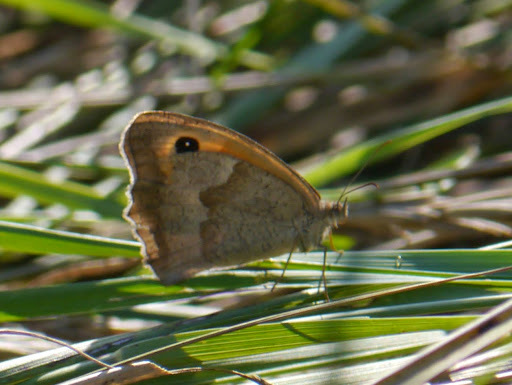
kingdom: Animalia
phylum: Arthropoda
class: Insecta
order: Lepidoptera
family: Nymphalidae
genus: Maniola
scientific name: Maniola jurtina
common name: Meadow brown
